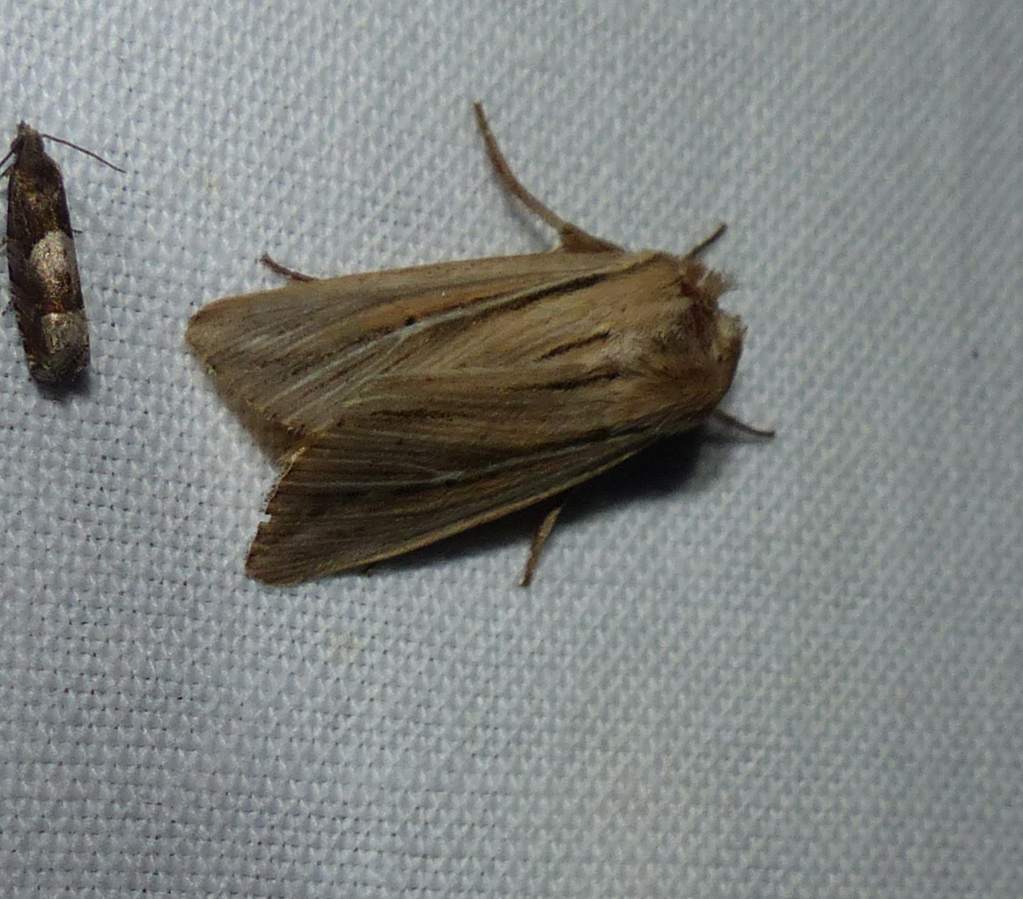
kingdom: Animalia
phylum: Arthropoda
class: Insecta
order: Lepidoptera
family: Noctuidae
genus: Leucania
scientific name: Leucania commoides
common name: Two-lined wainscot
